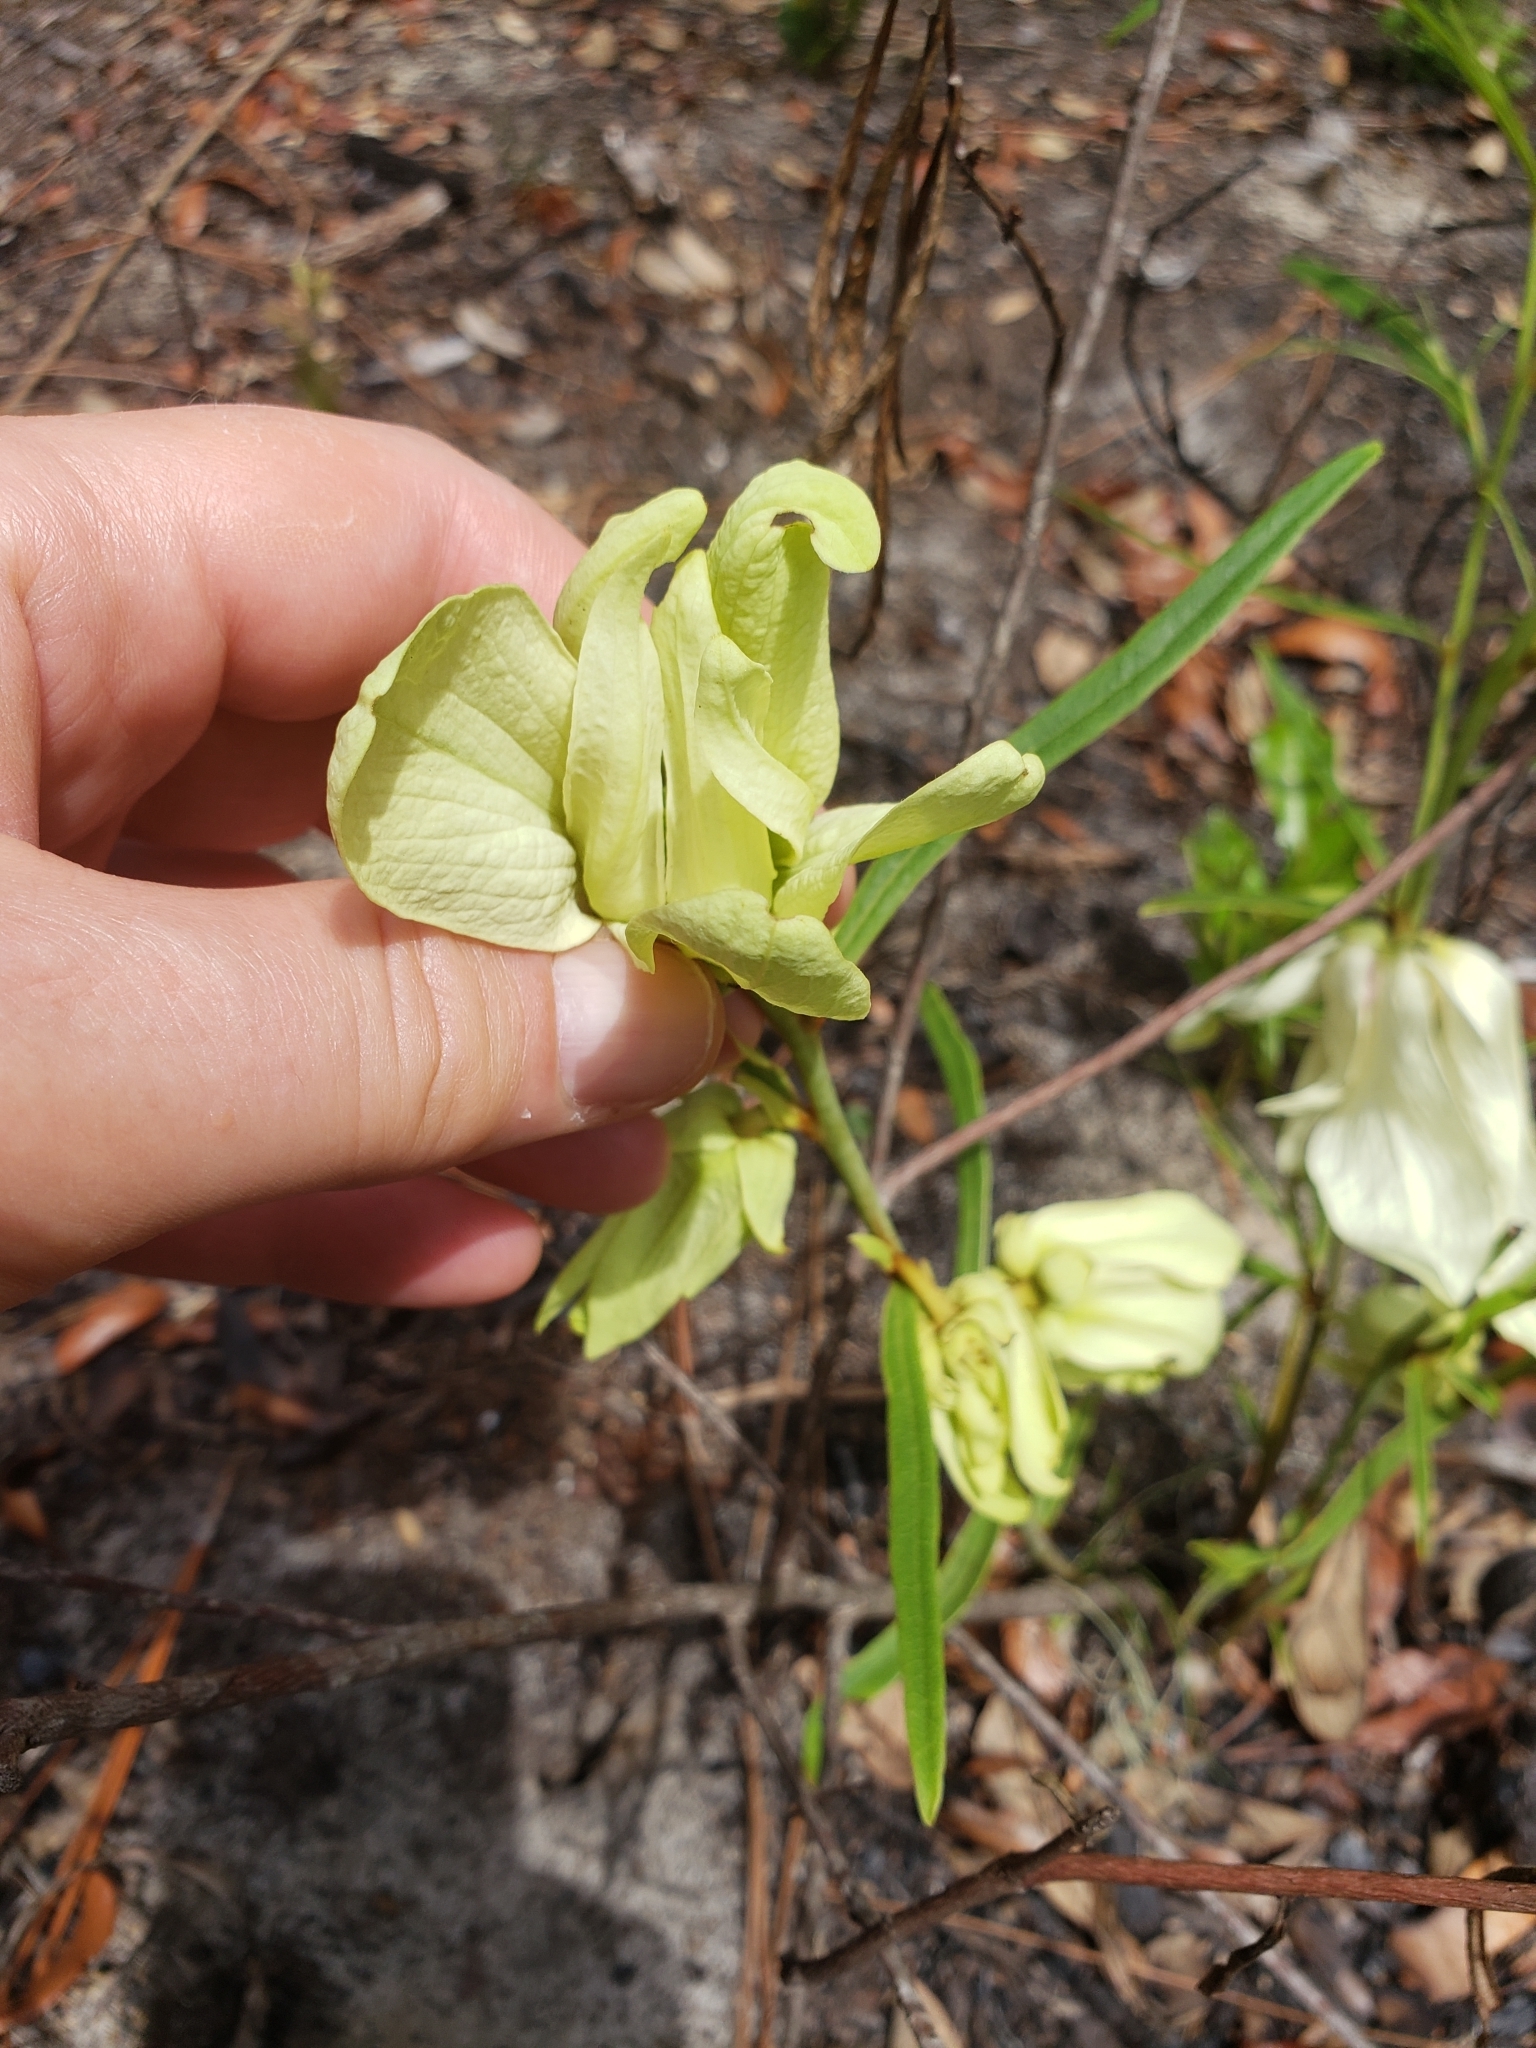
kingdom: Plantae
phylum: Tracheophyta
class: Magnoliopsida
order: Magnoliales
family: Annonaceae
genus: Asimina
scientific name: Asimina longifolia
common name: Polecatbush
